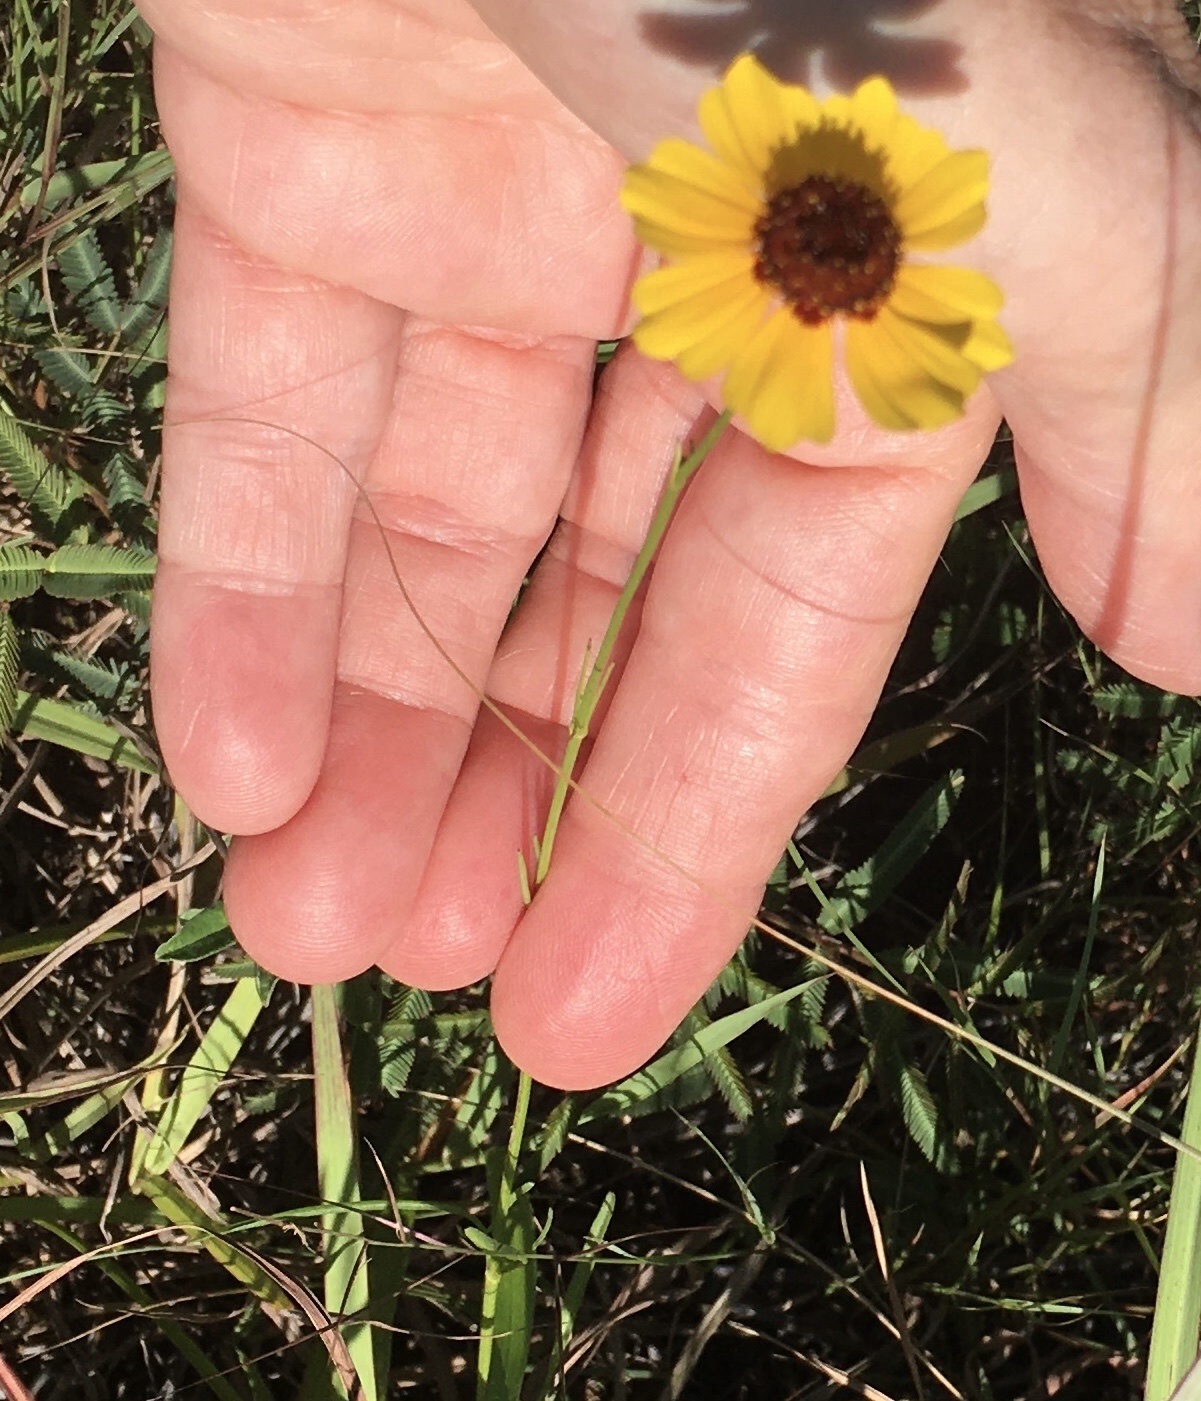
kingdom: Plantae
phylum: Tracheophyta
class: Magnoliopsida
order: Asterales
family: Asteraceae
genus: Coreopsis
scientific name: Coreopsis tinctoria
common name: Garden tickseed
